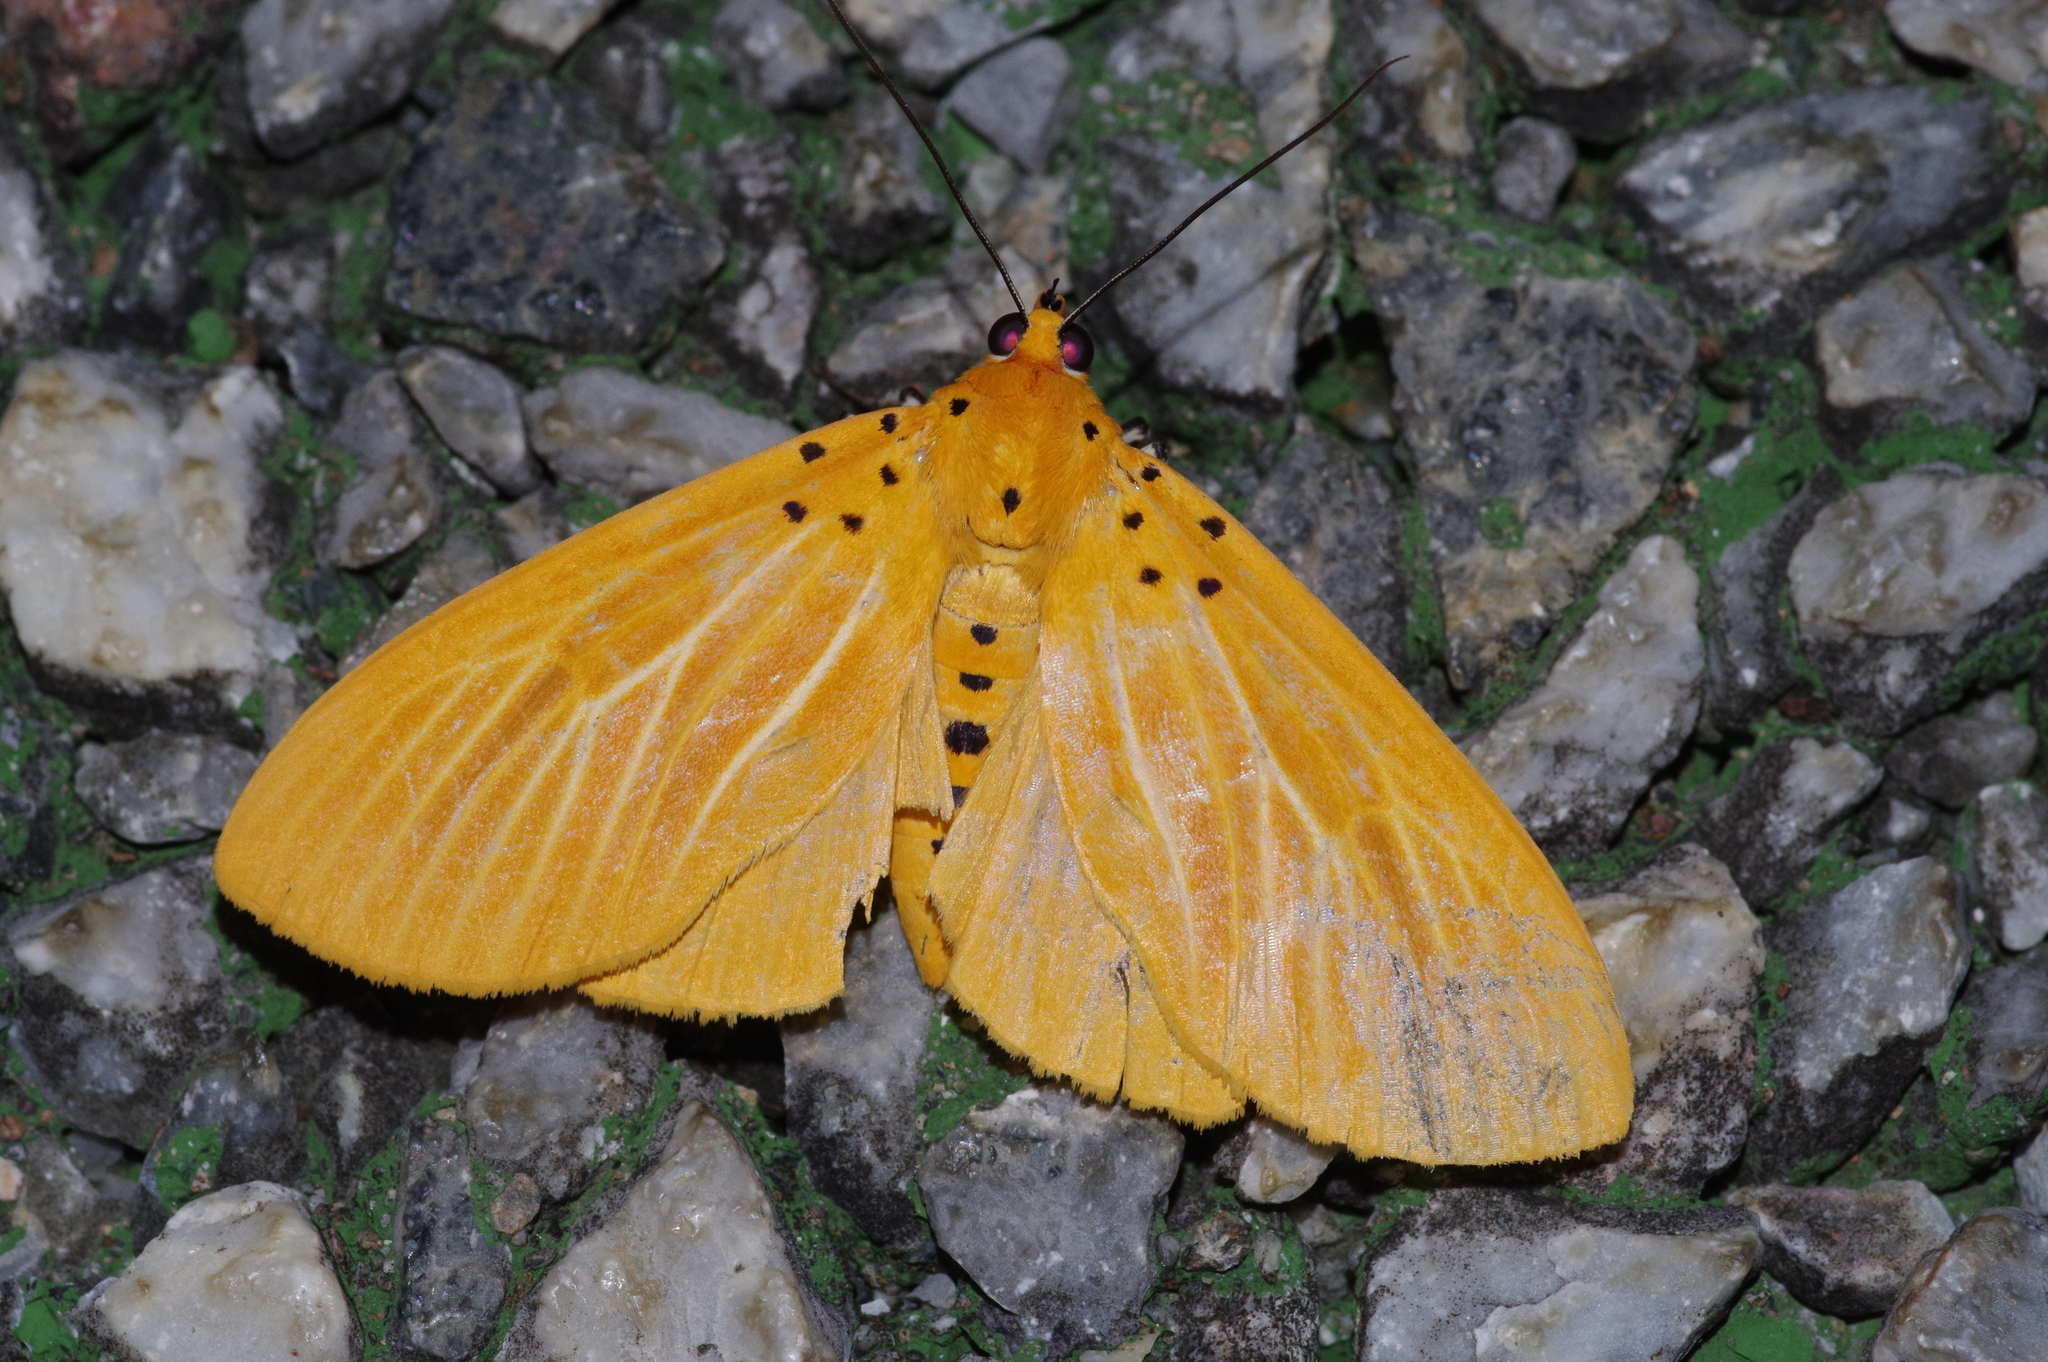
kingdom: Animalia
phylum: Arthropoda
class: Insecta
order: Lepidoptera
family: Erebidae
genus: Asota
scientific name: Asota egens
